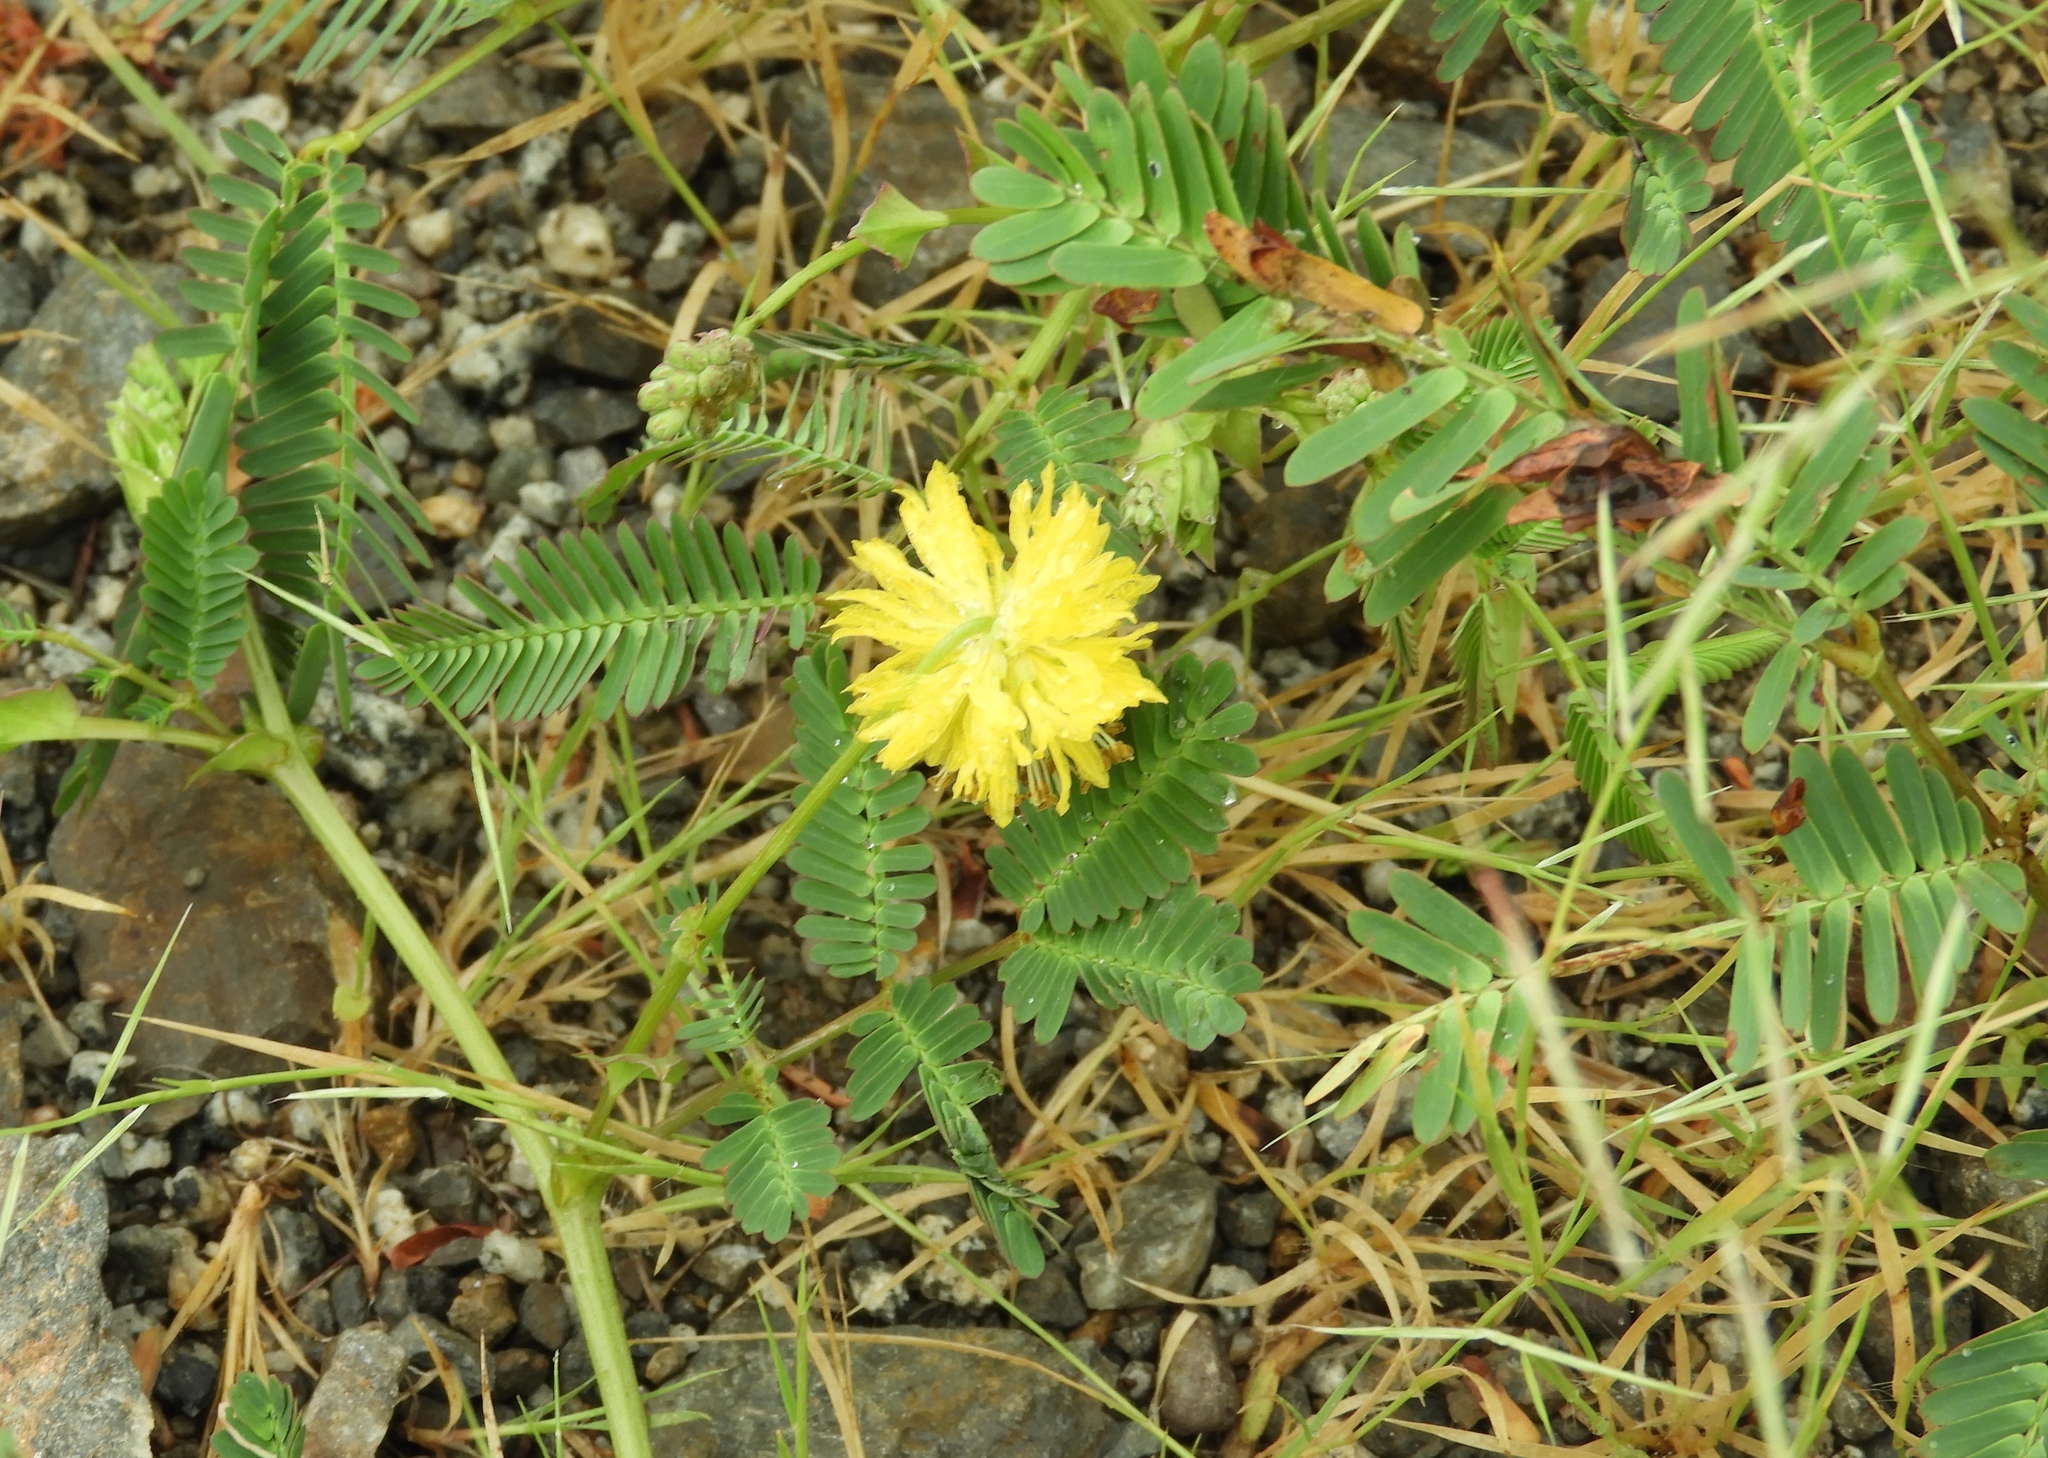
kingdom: Plantae
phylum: Tracheophyta
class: Magnoliopsida
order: Fabales
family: Fabaceae
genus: Neptunia
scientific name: Neptunia plena
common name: Dead and awake
